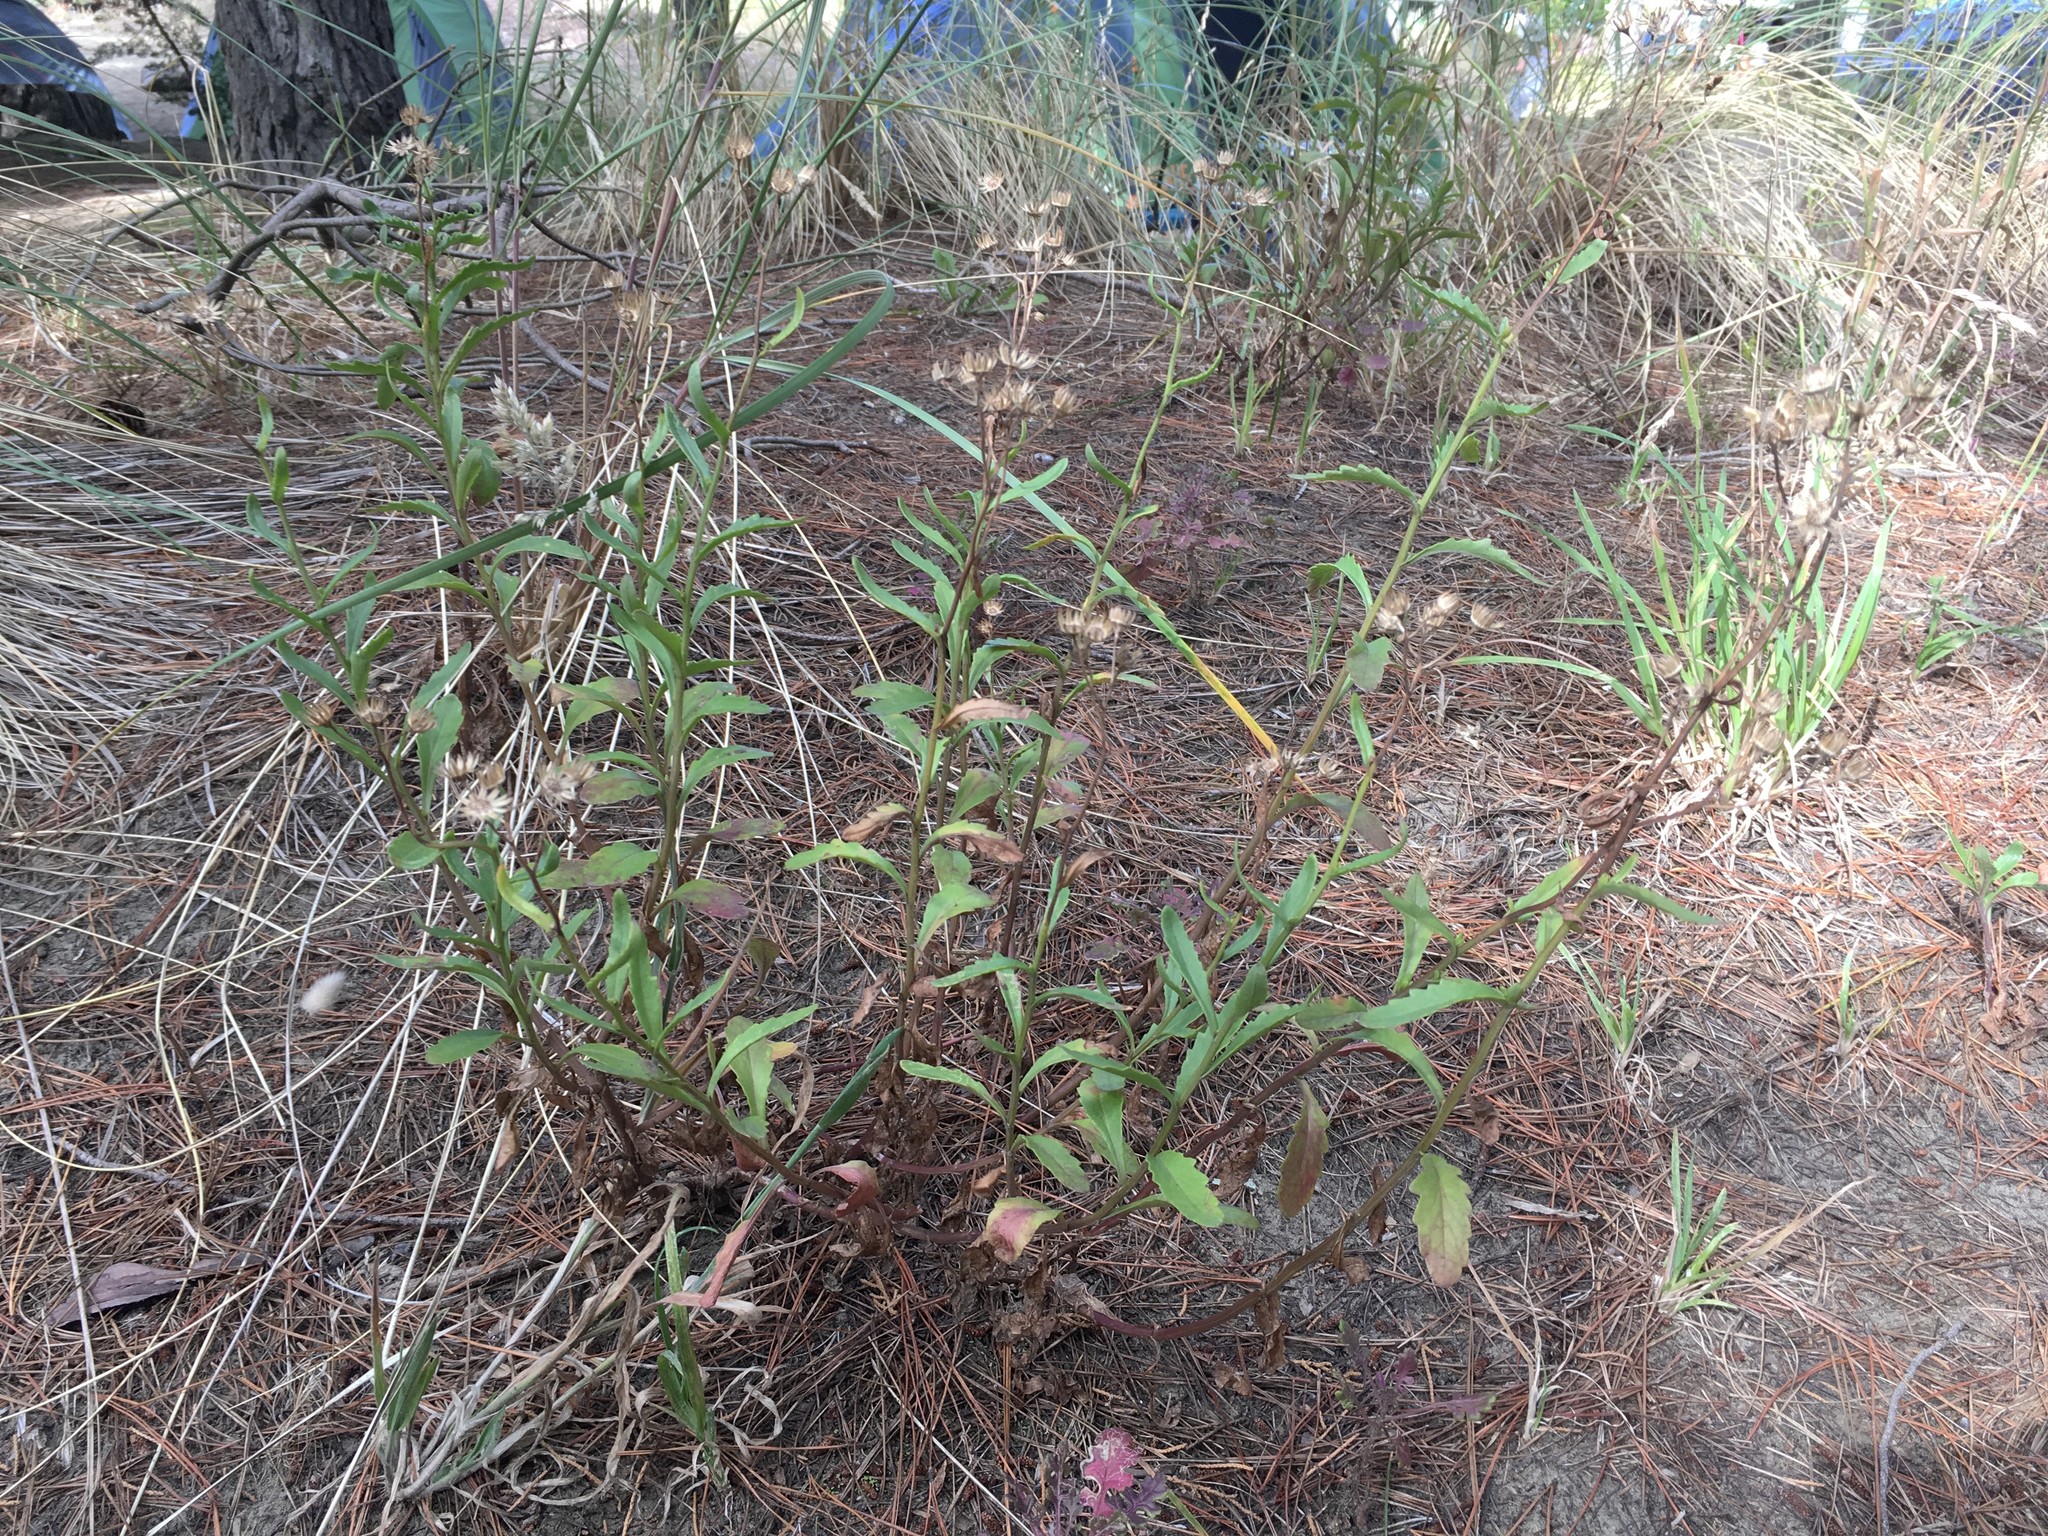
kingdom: Plantae
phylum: Tracheophyta
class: Magnoliopsida
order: Asterales
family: Asteraceae
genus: Senecio
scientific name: Senecio matatini
